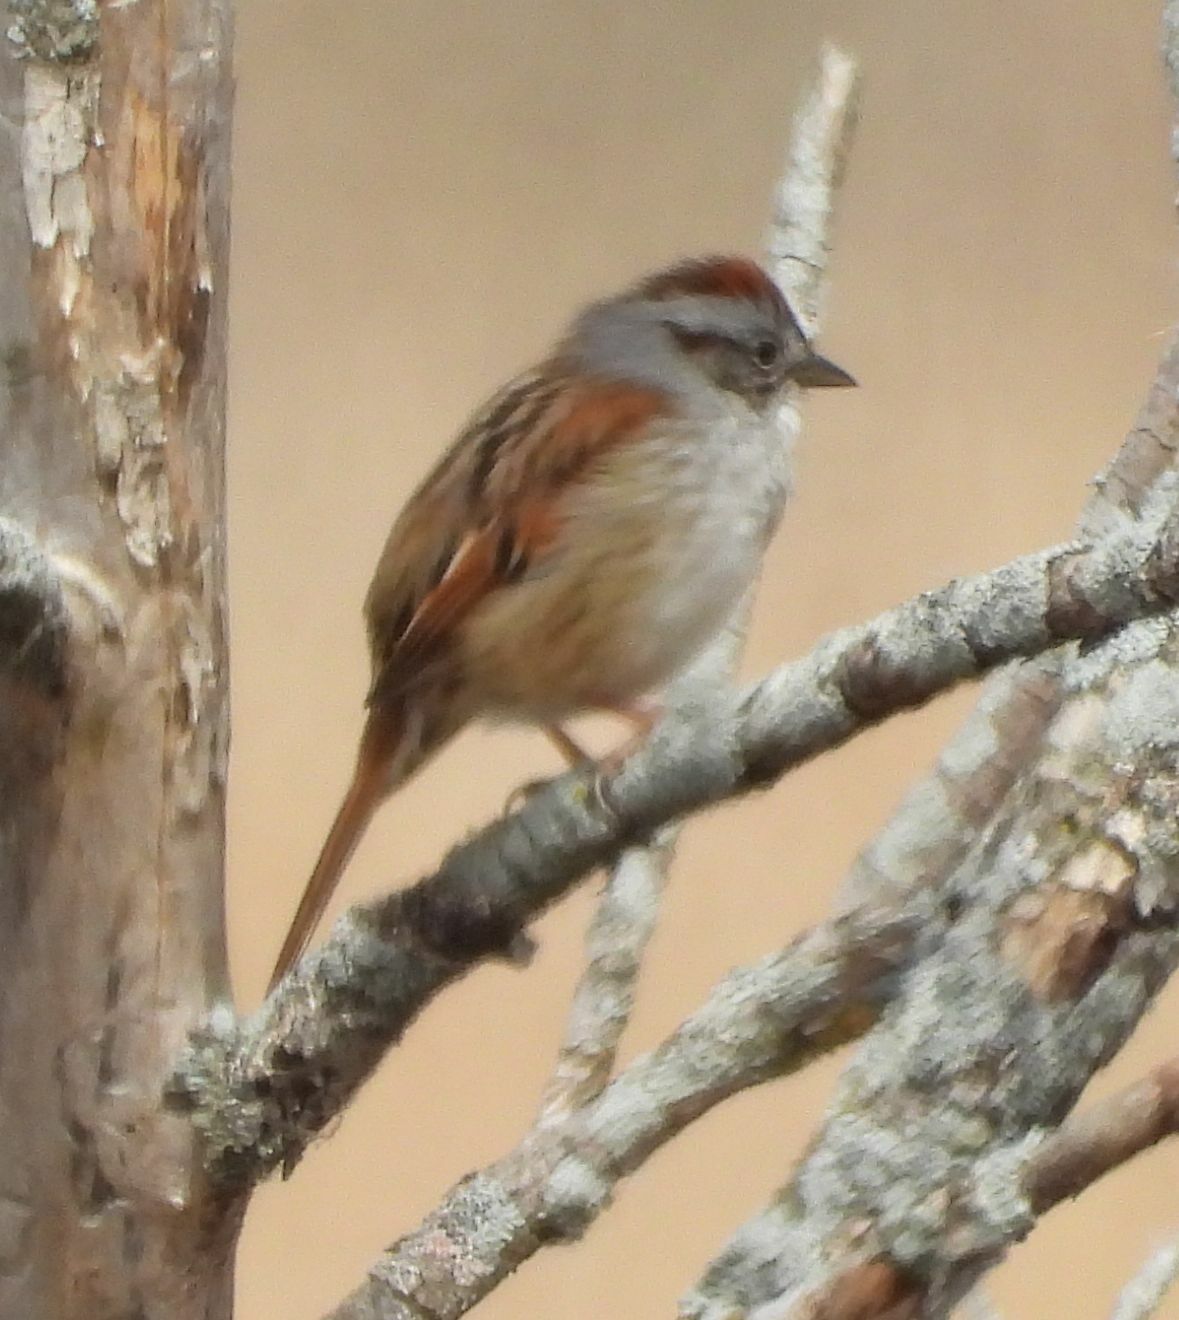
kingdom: Animalia
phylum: Chordata
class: Aves
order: Passeriformes
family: Passerellidae
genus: Melospiza
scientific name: Melospiza georgiana
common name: Swamp sparrow
